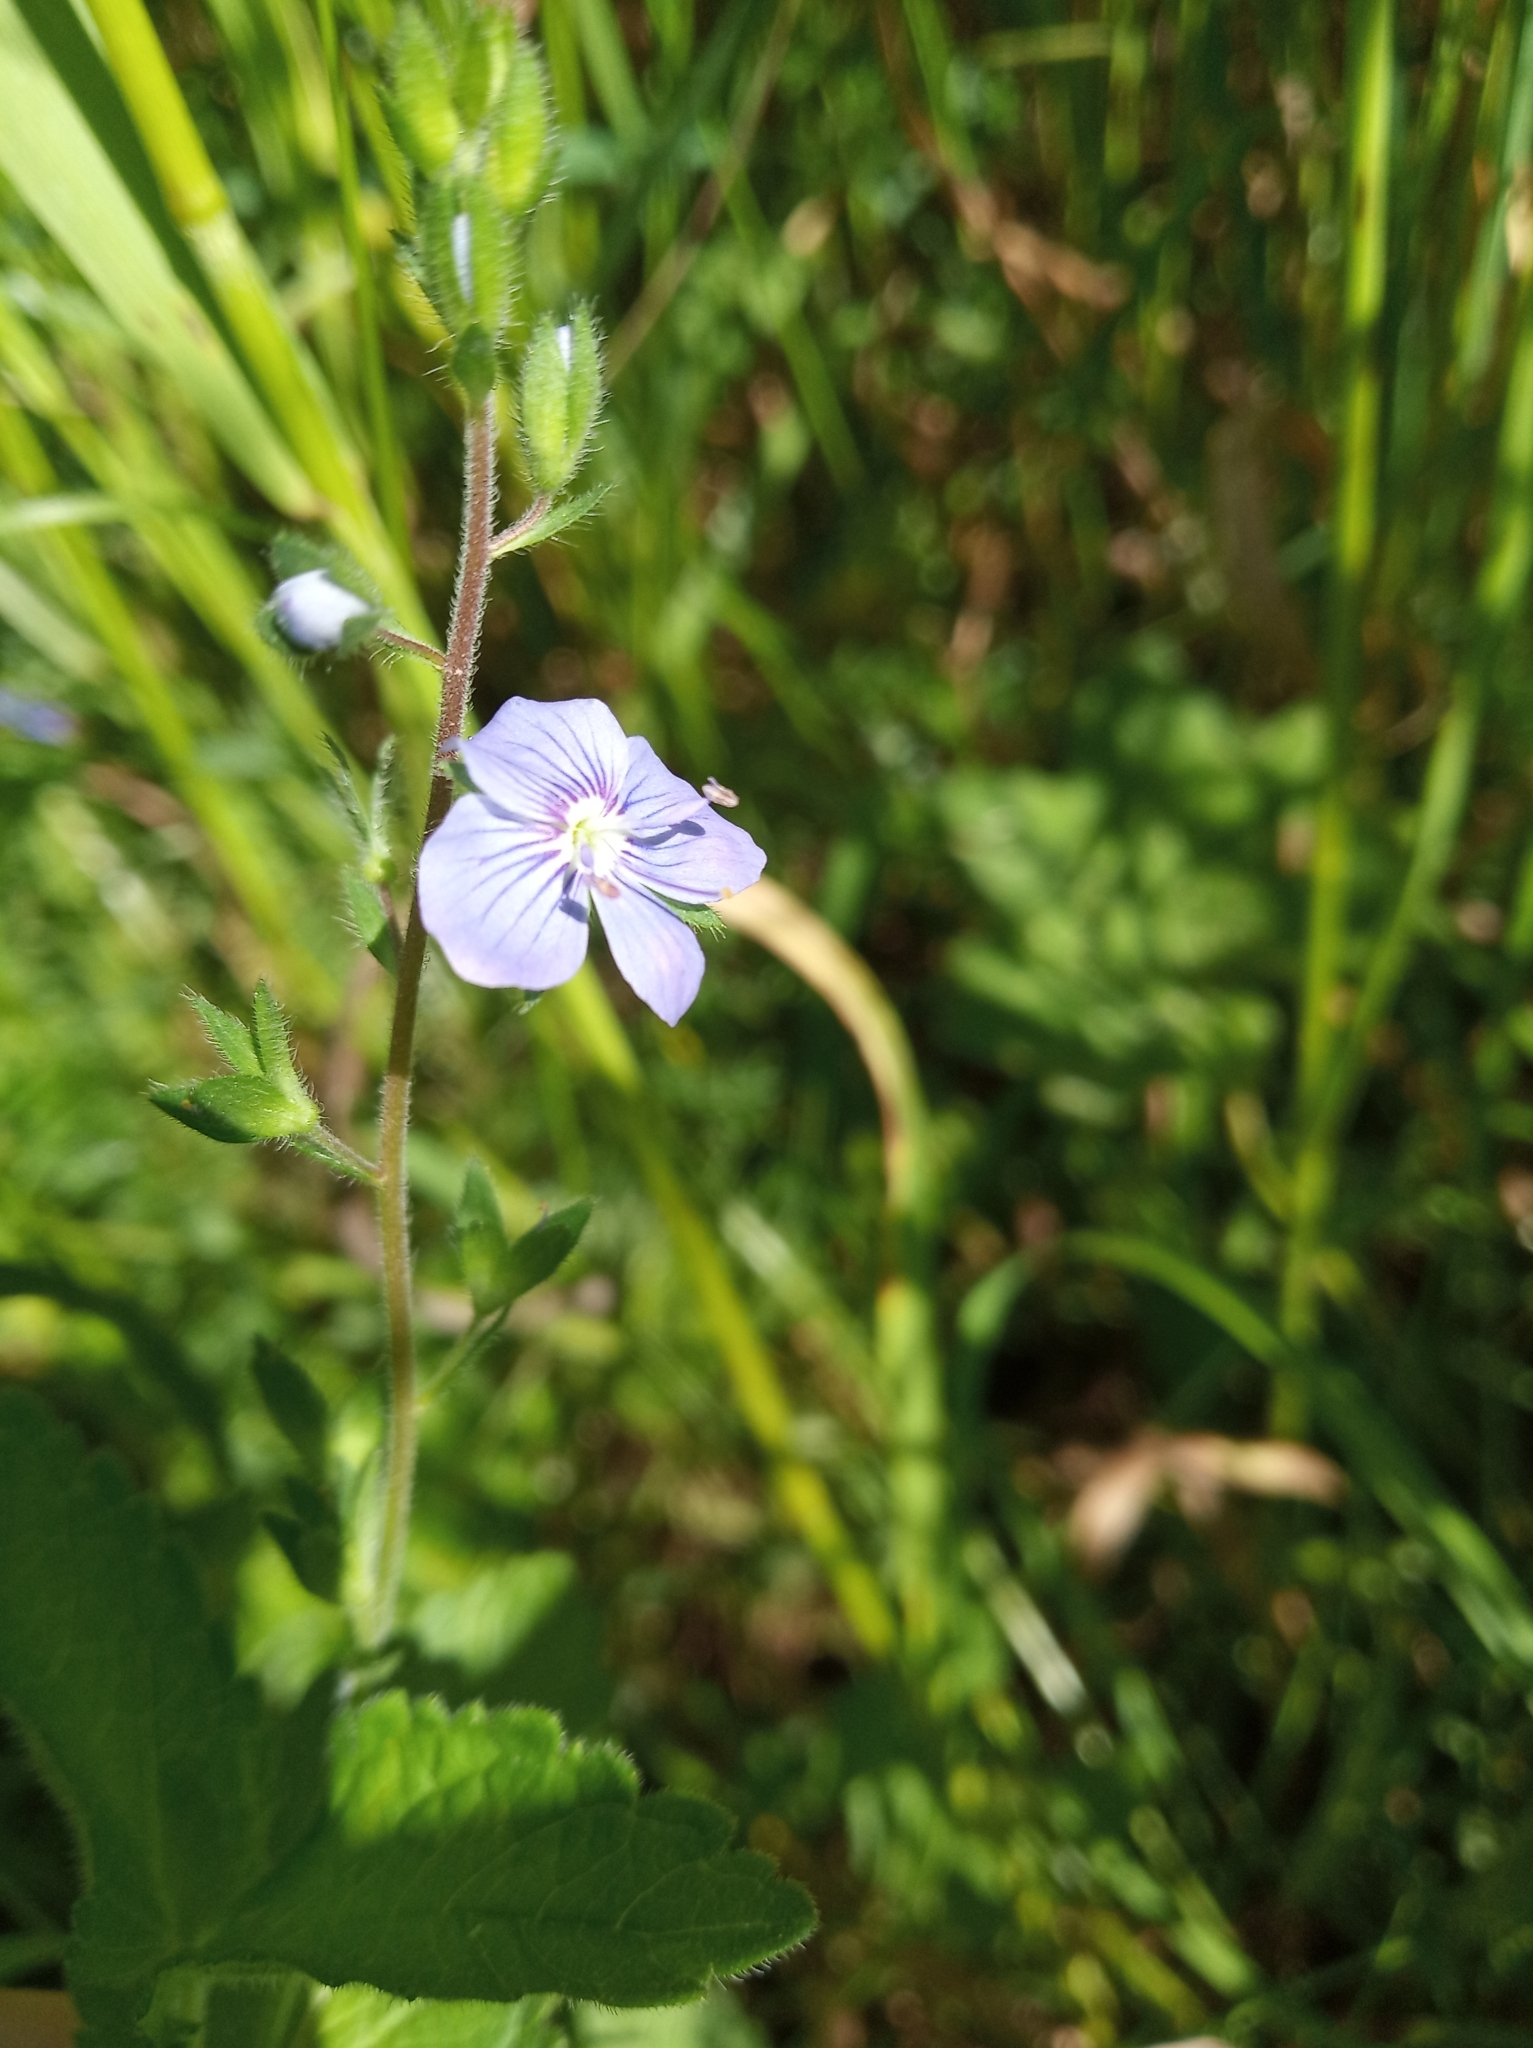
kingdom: Plantae
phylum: Tracheophyta
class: Magnoliopsida
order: Lamiales
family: Plantaginaceae
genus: Veronica
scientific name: Veronica chamaedrys
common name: Germander speedwell
